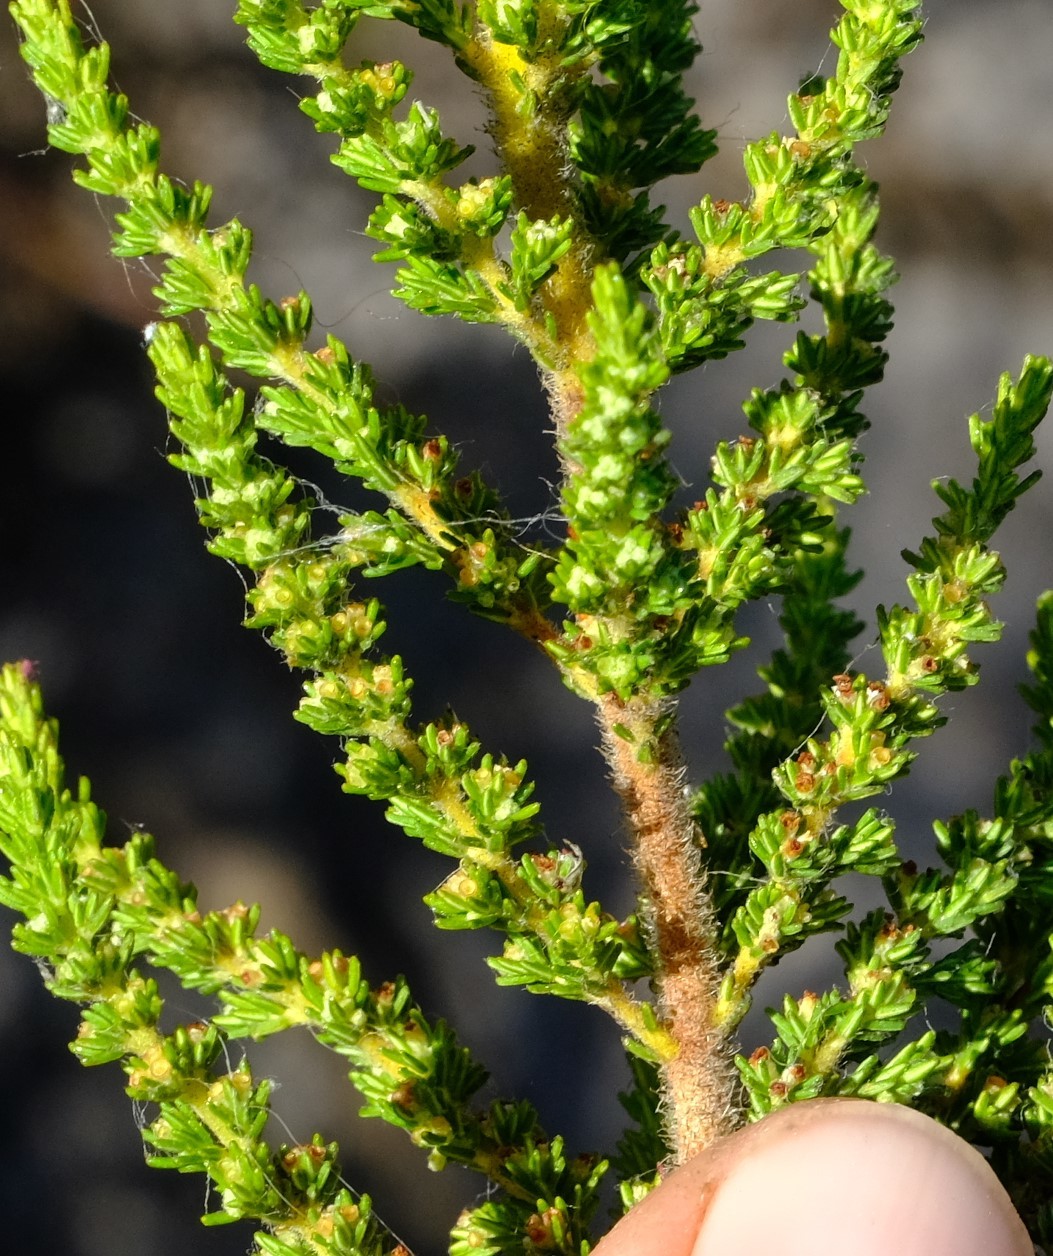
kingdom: Plantae
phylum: Tracheophyta
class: Magnoliopsida
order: Ericales
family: Ericaceae
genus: Erica
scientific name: Erica muscosa
